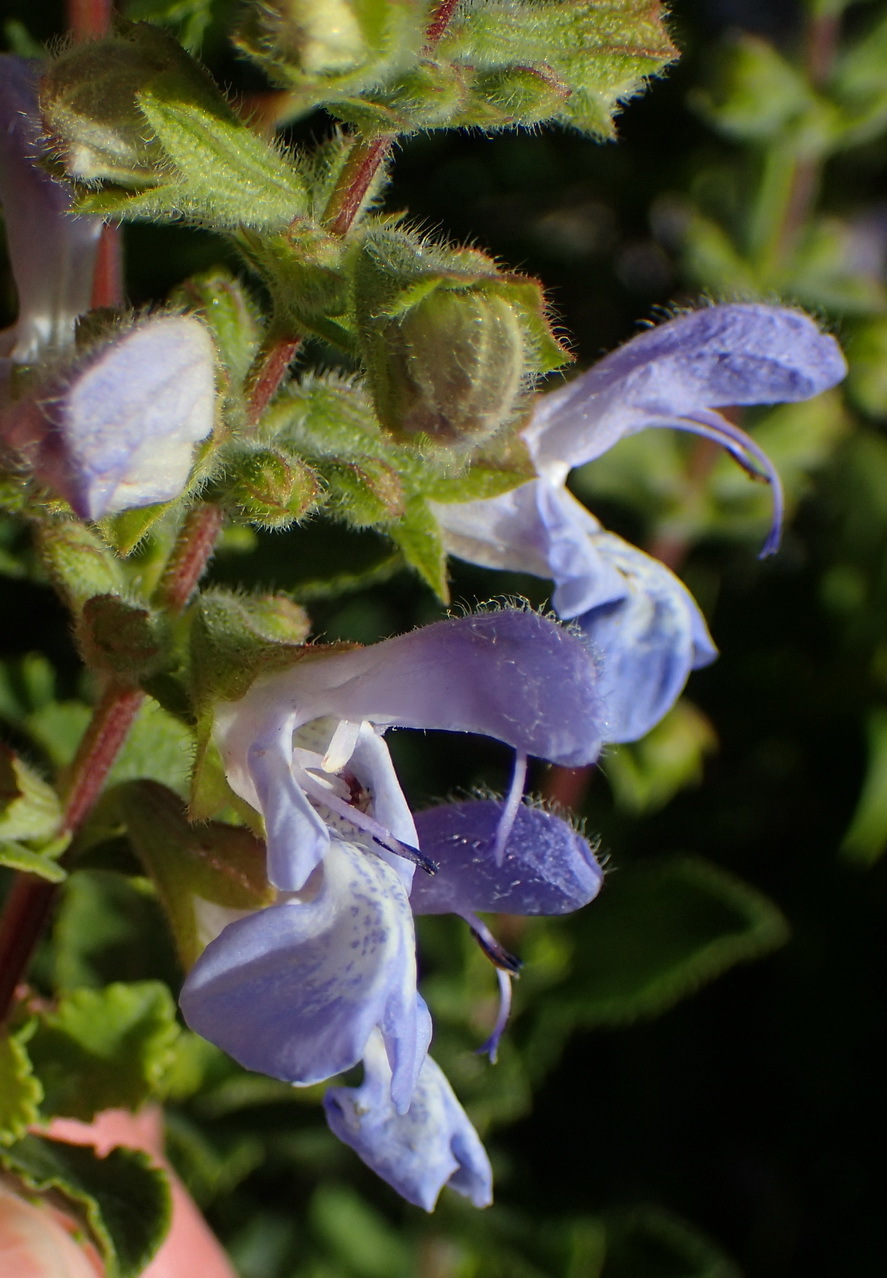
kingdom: Plantae
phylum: Tracheophyta
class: Magnoliopsida
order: Lamiales
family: Lamiaceae
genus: Salvia
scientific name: Salvia africana
